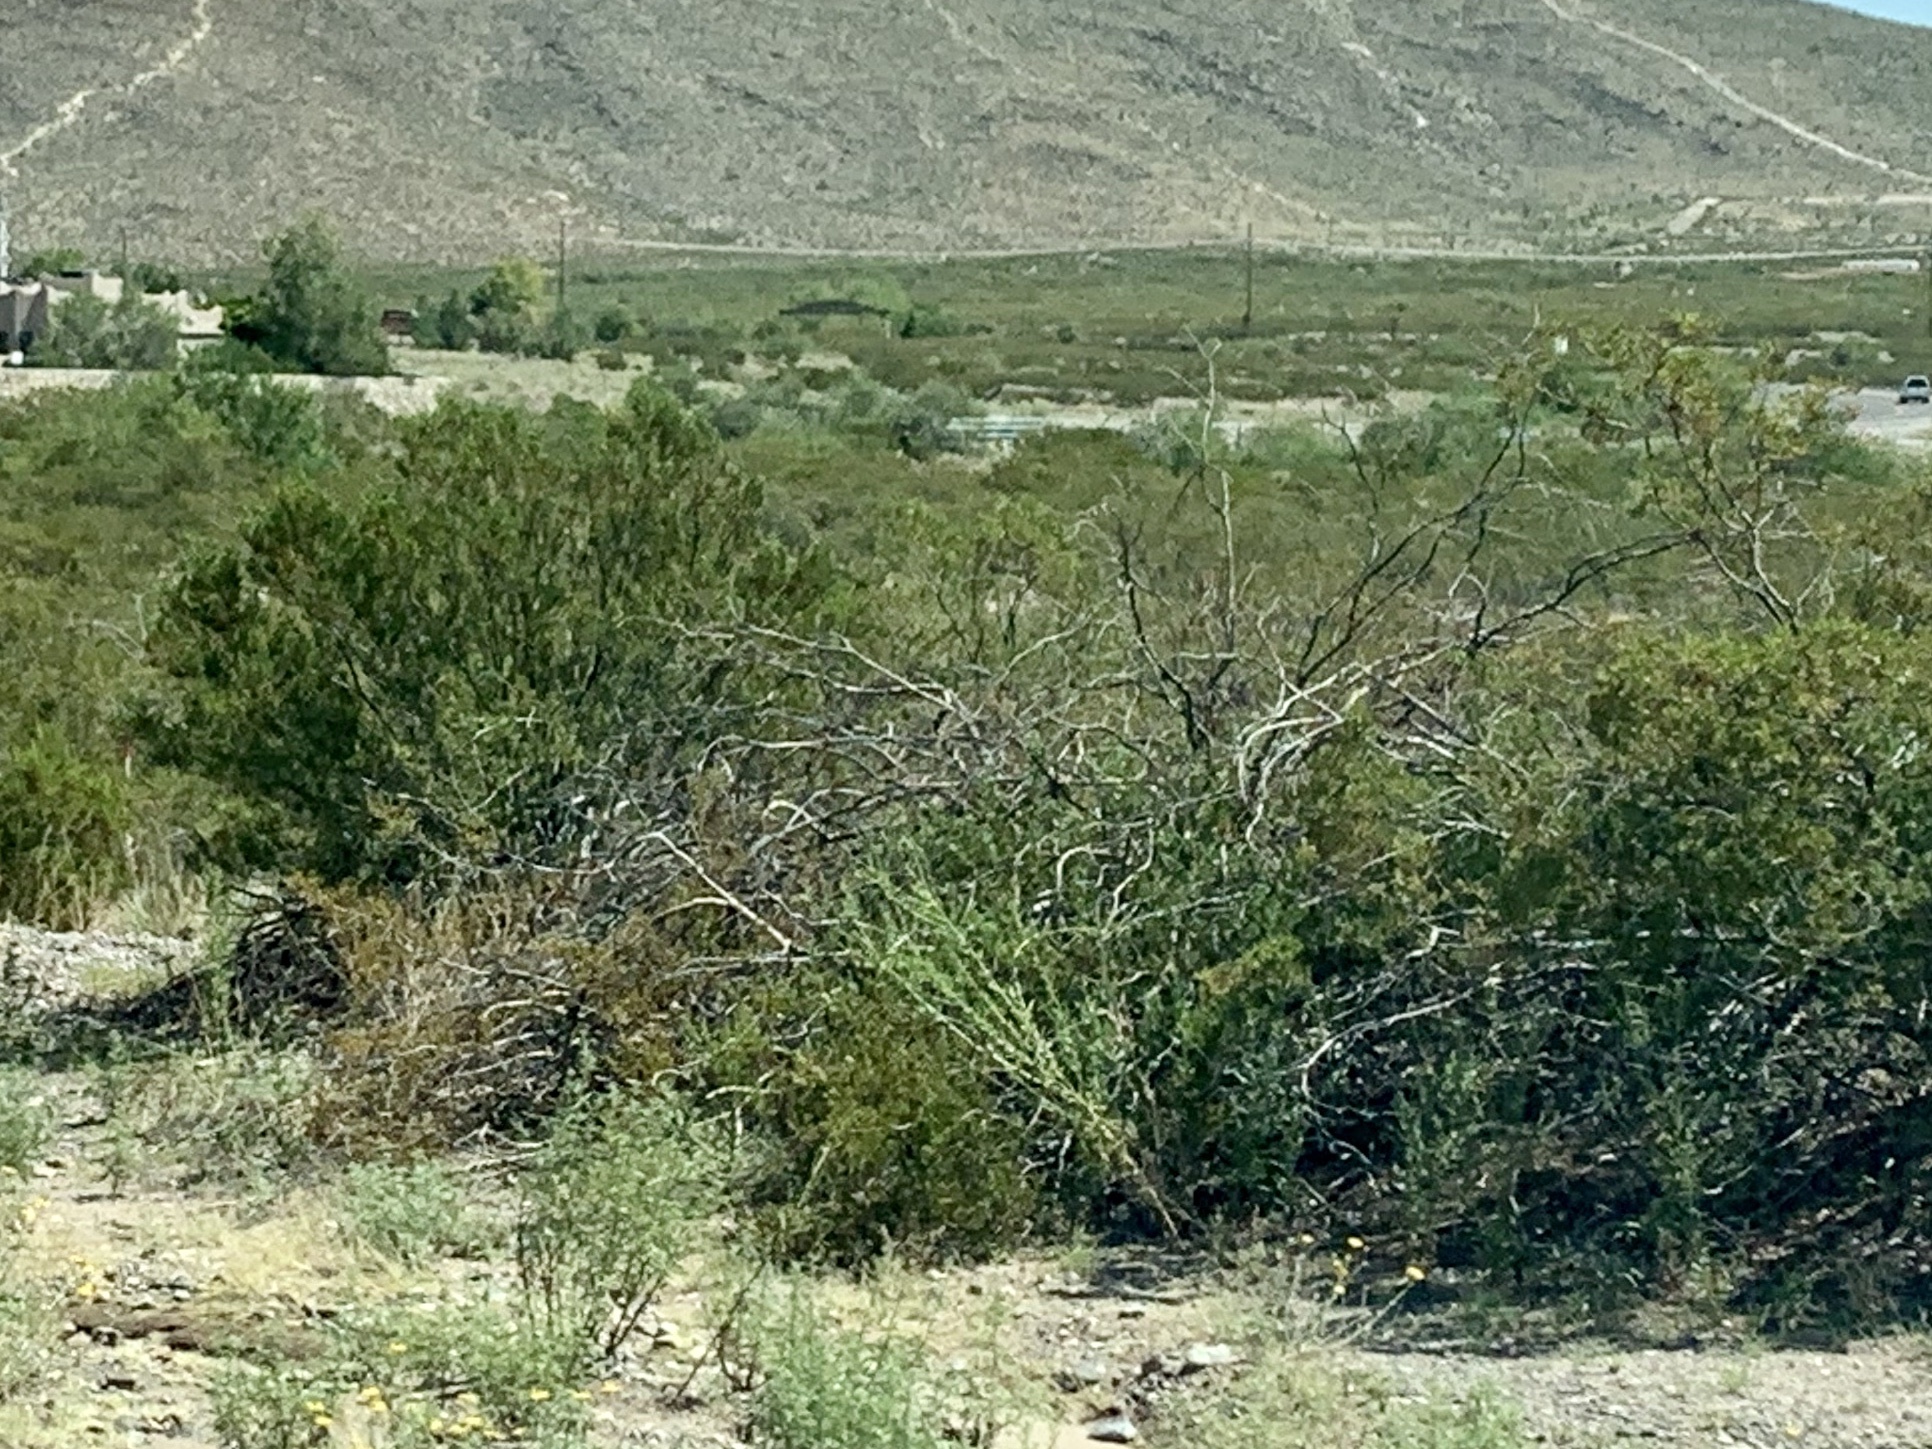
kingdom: Plantae
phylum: Tracheophyta
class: Magnoliopsida
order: Zygophyllales
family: Zygophyllaceae
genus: Larrea
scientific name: Larrea tridentata
